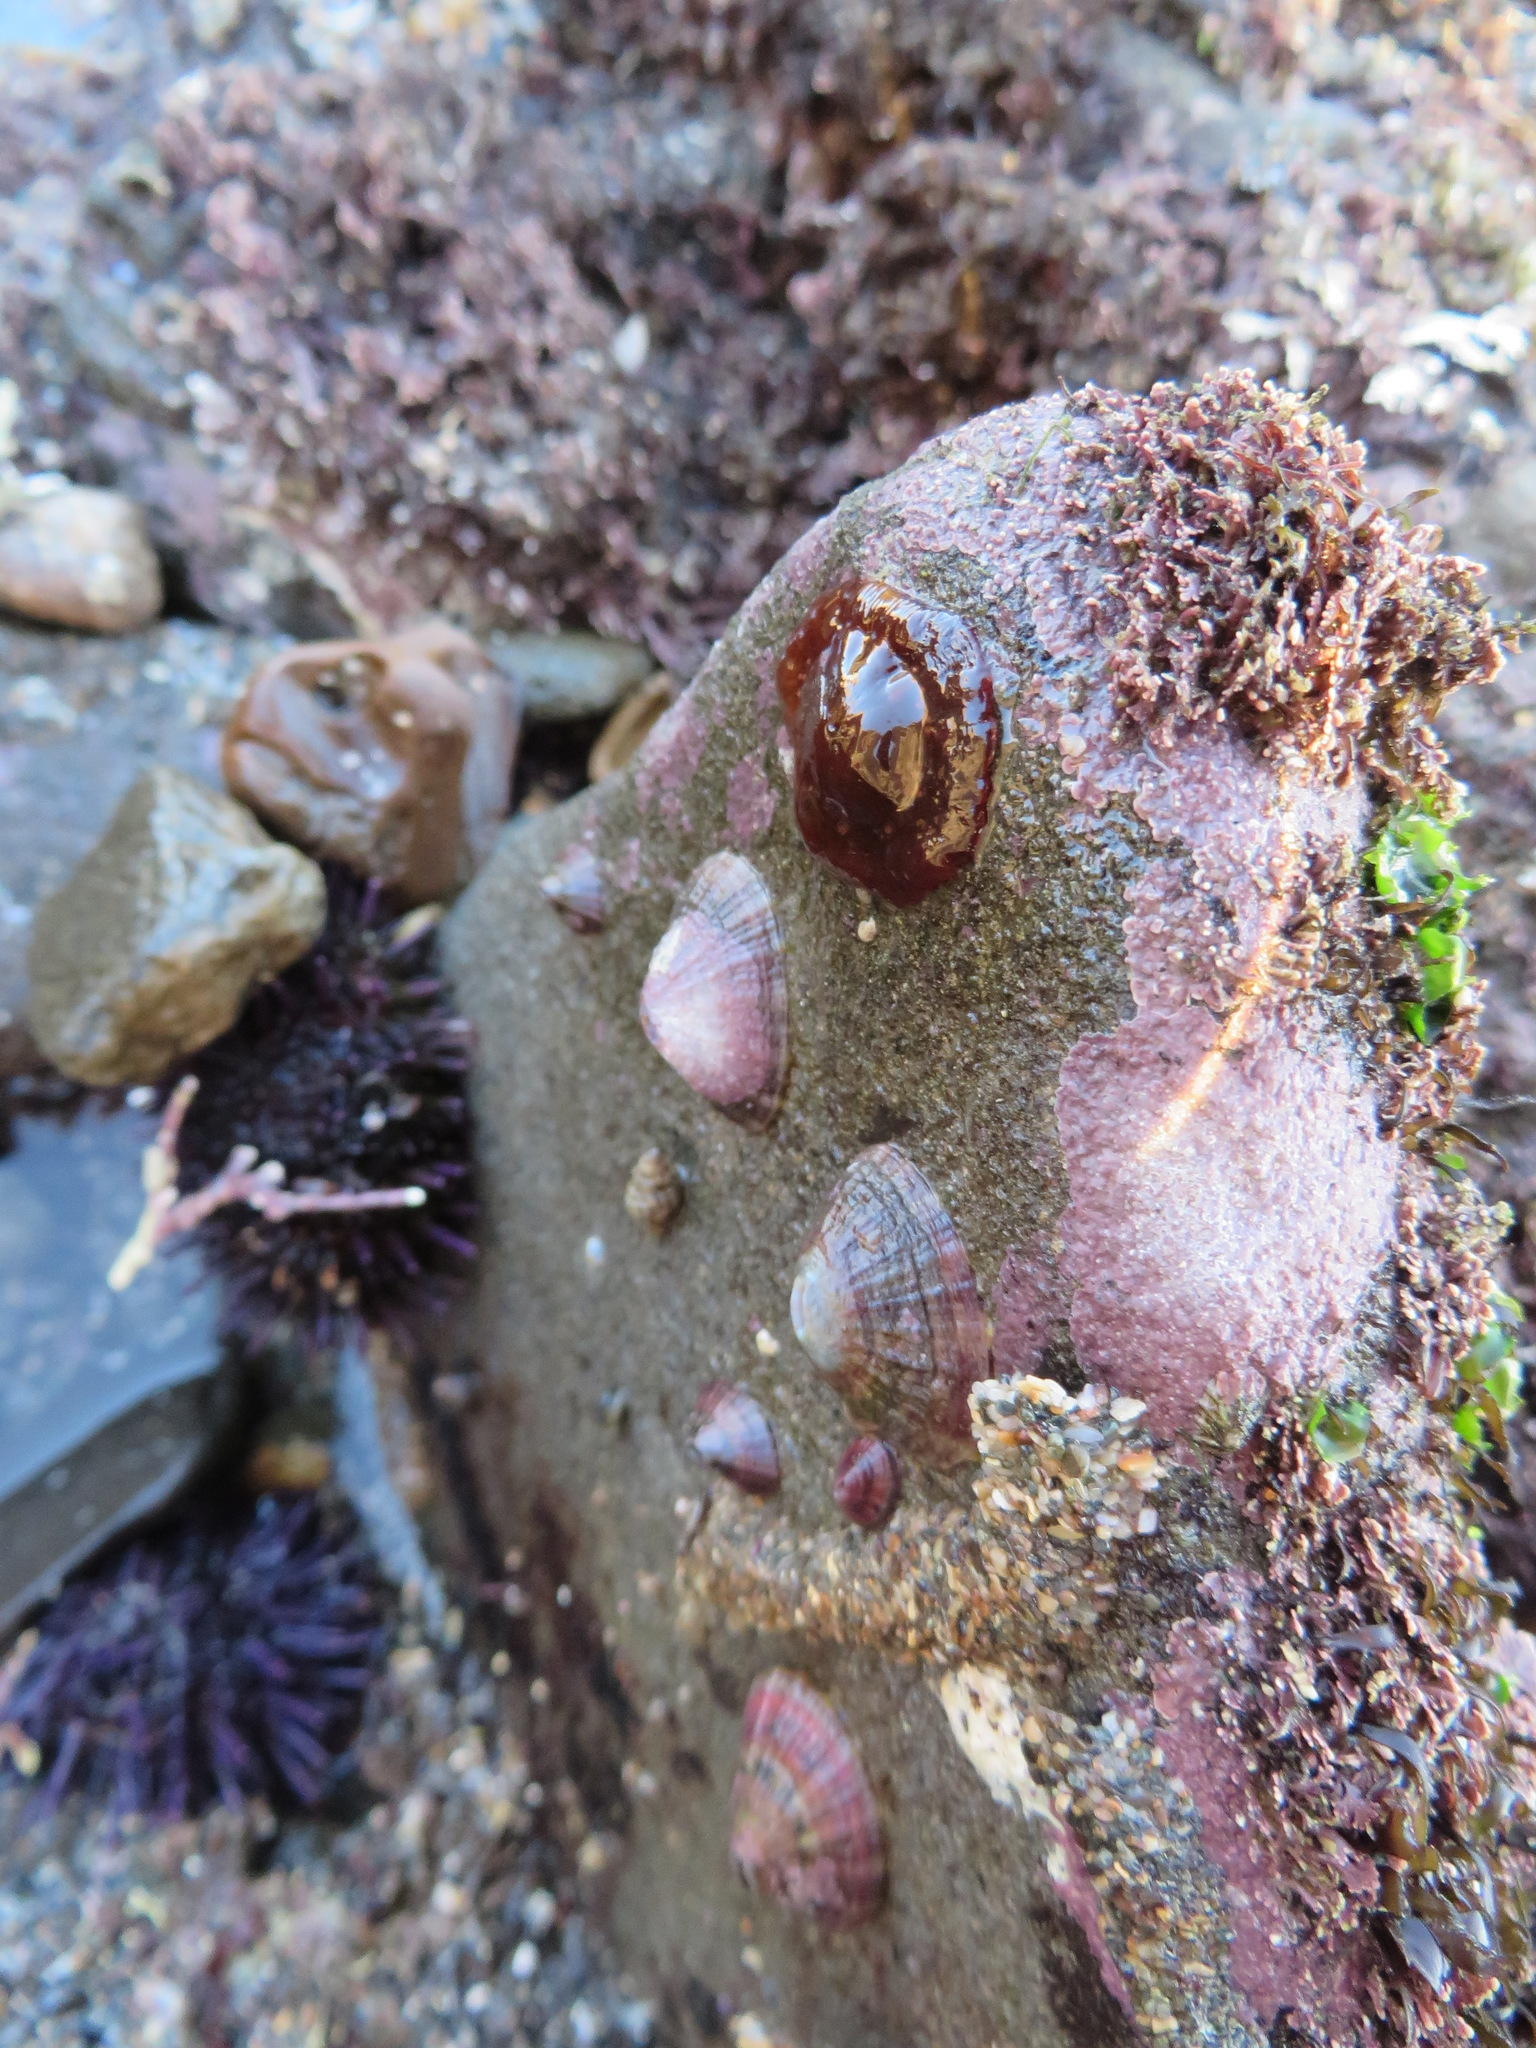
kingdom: Animalia
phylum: Cnidaria
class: Anthozoa
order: Actiniaria
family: Actiniidae
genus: Epiactis
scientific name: Epiactis prolifera
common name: Brooding anemone
